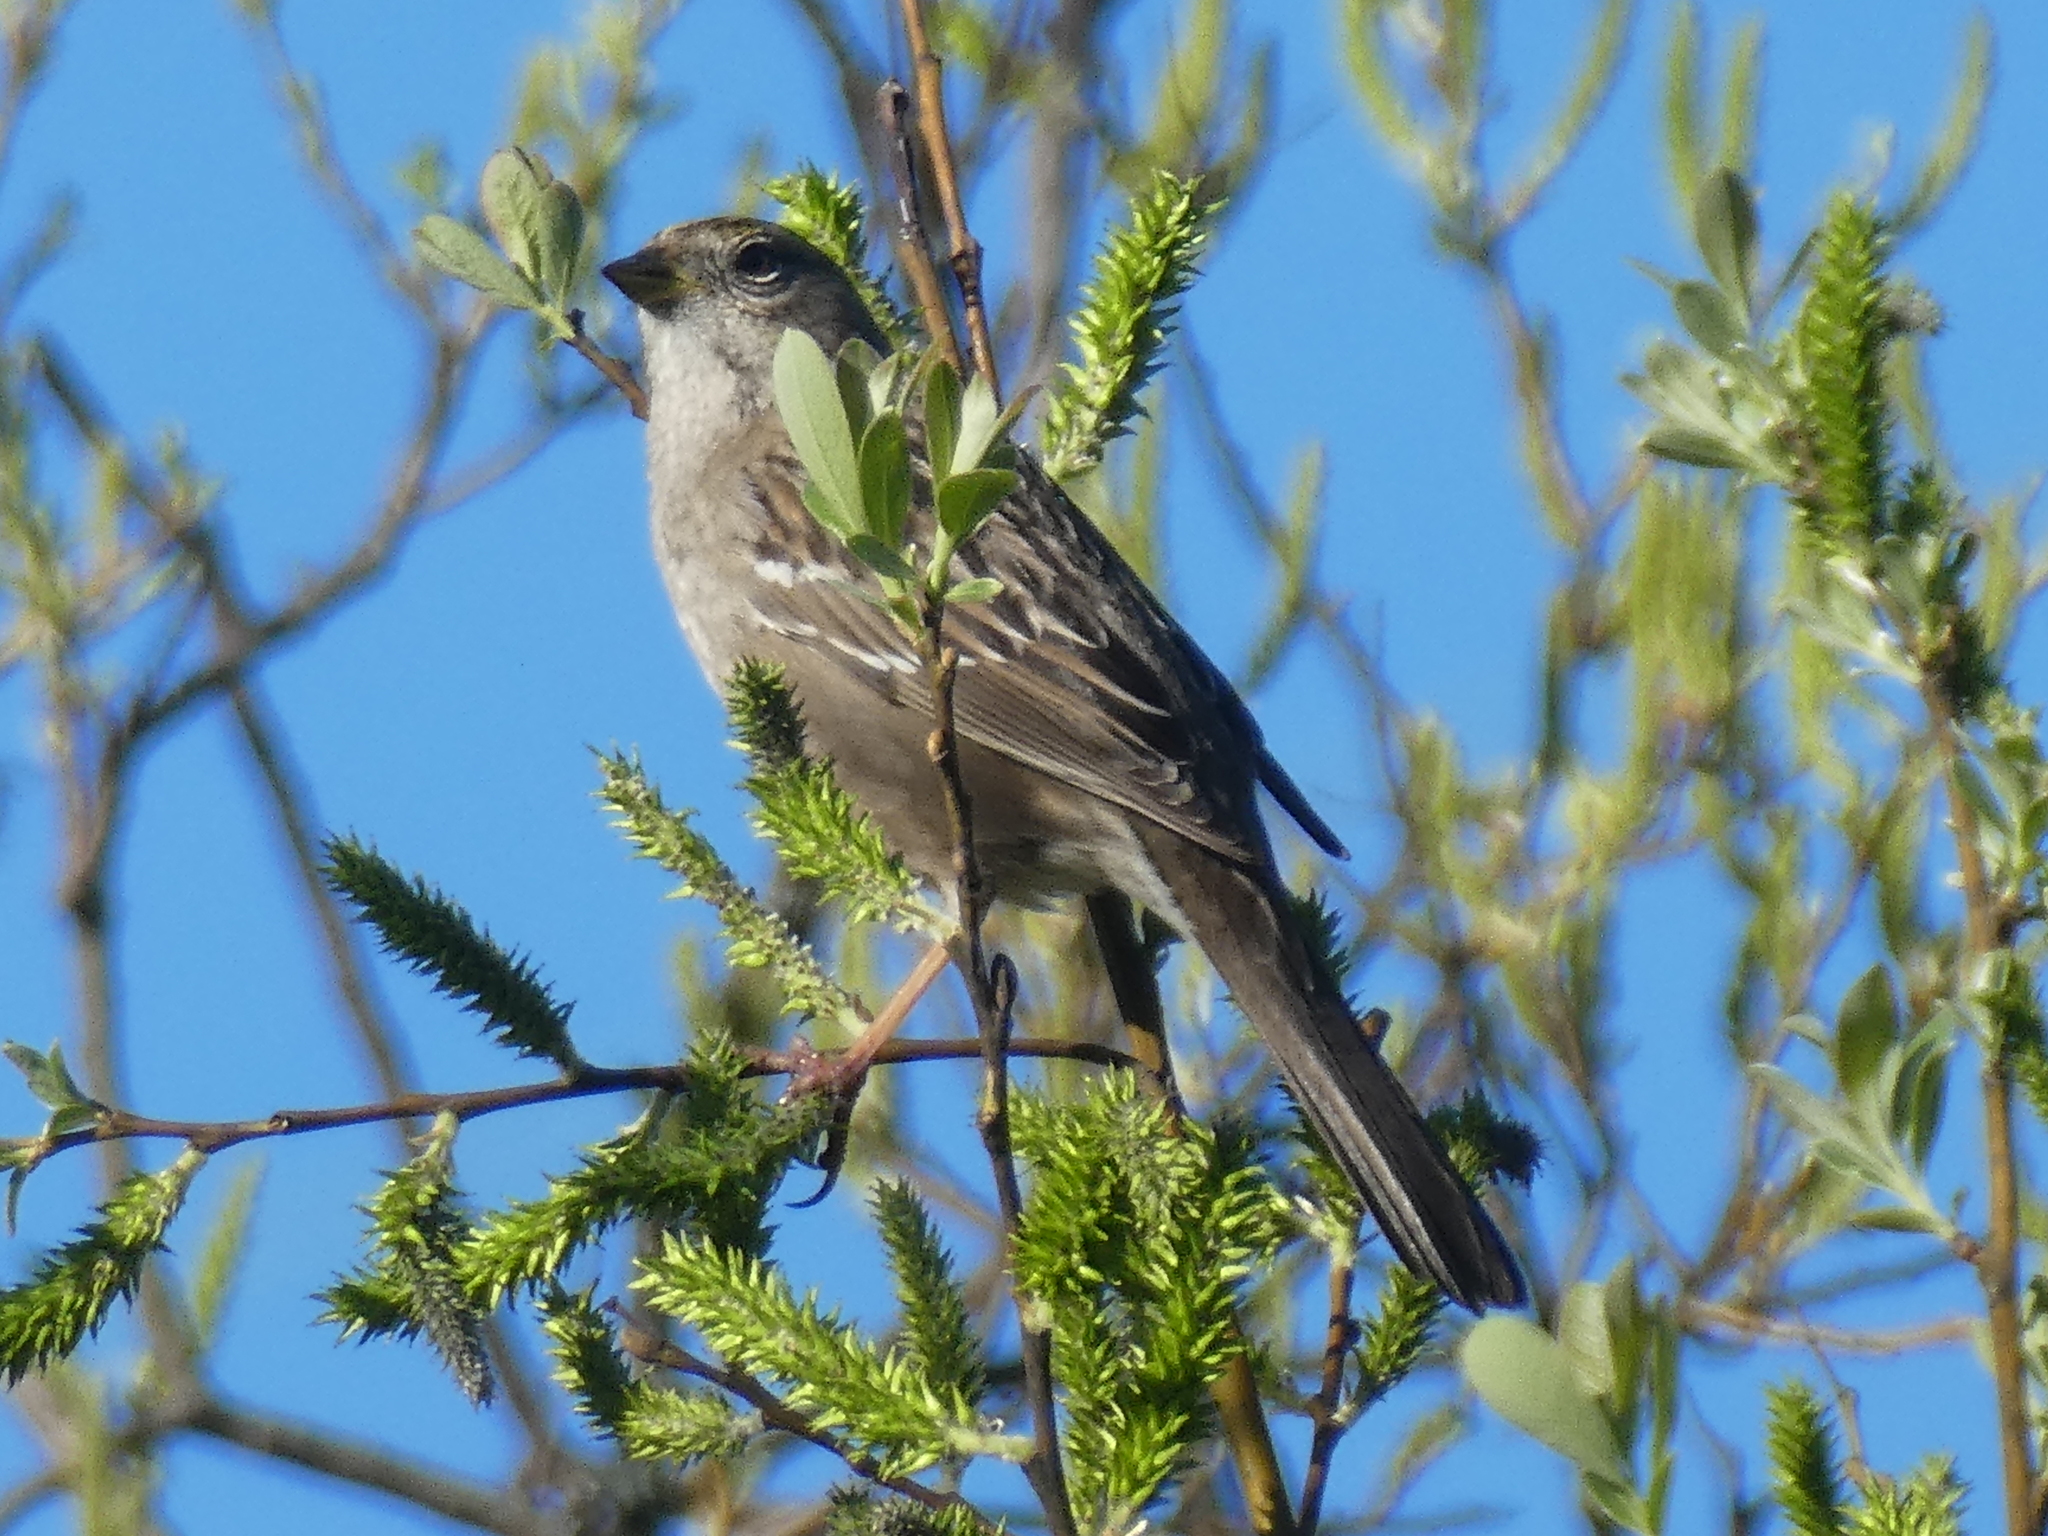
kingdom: Animalia
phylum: Chordata
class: Aves
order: Passeriformes
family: Passerellidae
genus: Zonotrichia
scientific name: Zonotrichia atricapilla
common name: Golden-crowned sparrow
